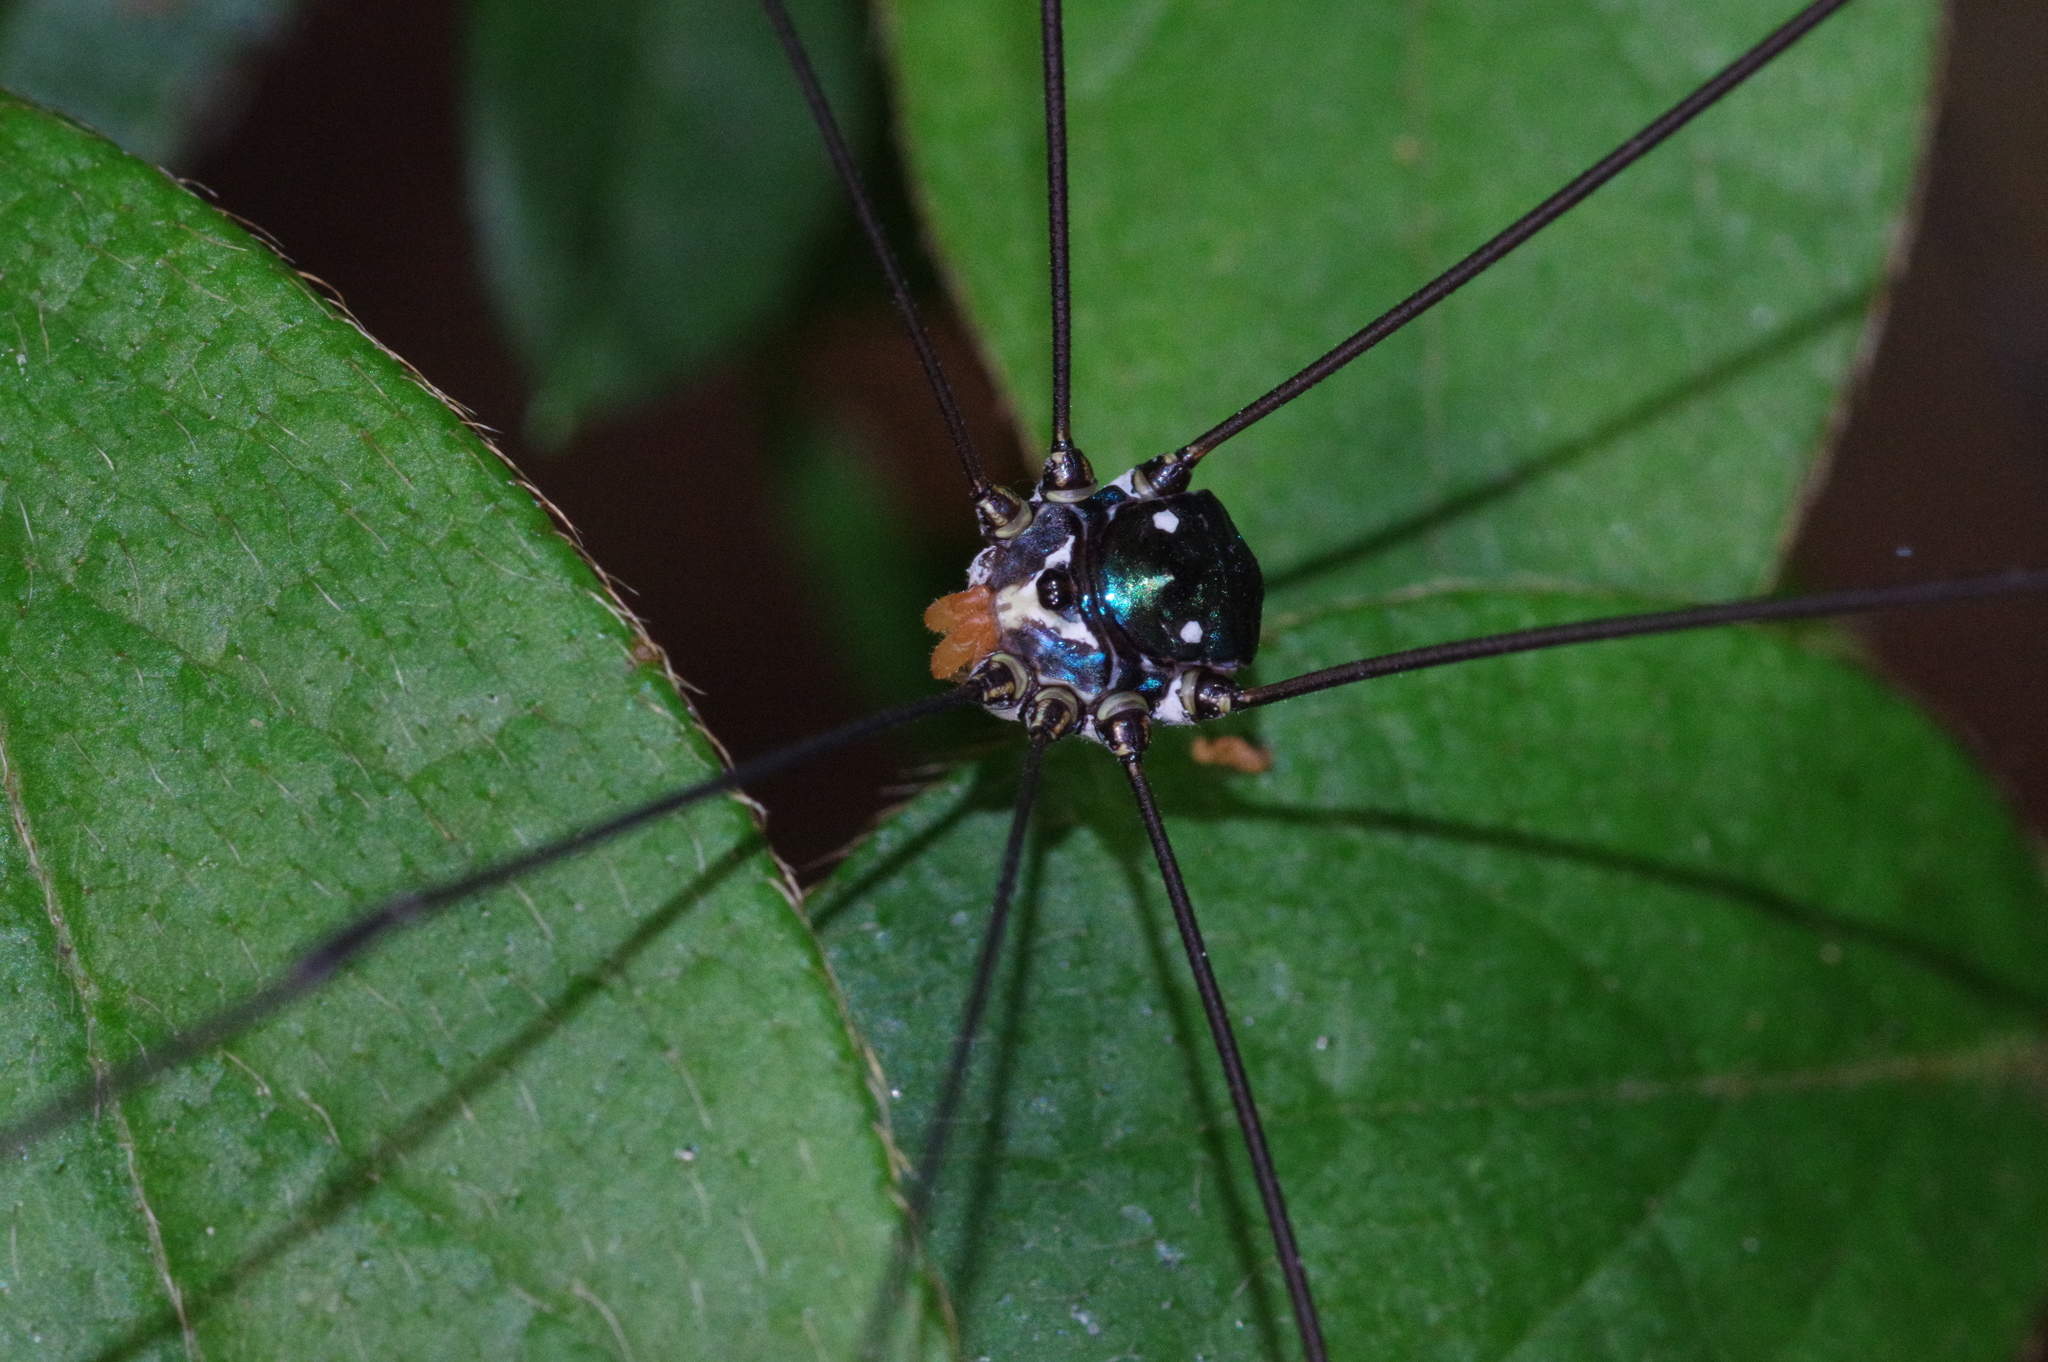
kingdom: Animalia
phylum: Arthropoda
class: Arachnida
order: Opiliones
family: Sclerosomatidae
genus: Pseudogagrella
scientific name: Pseudogagrella amamiana
